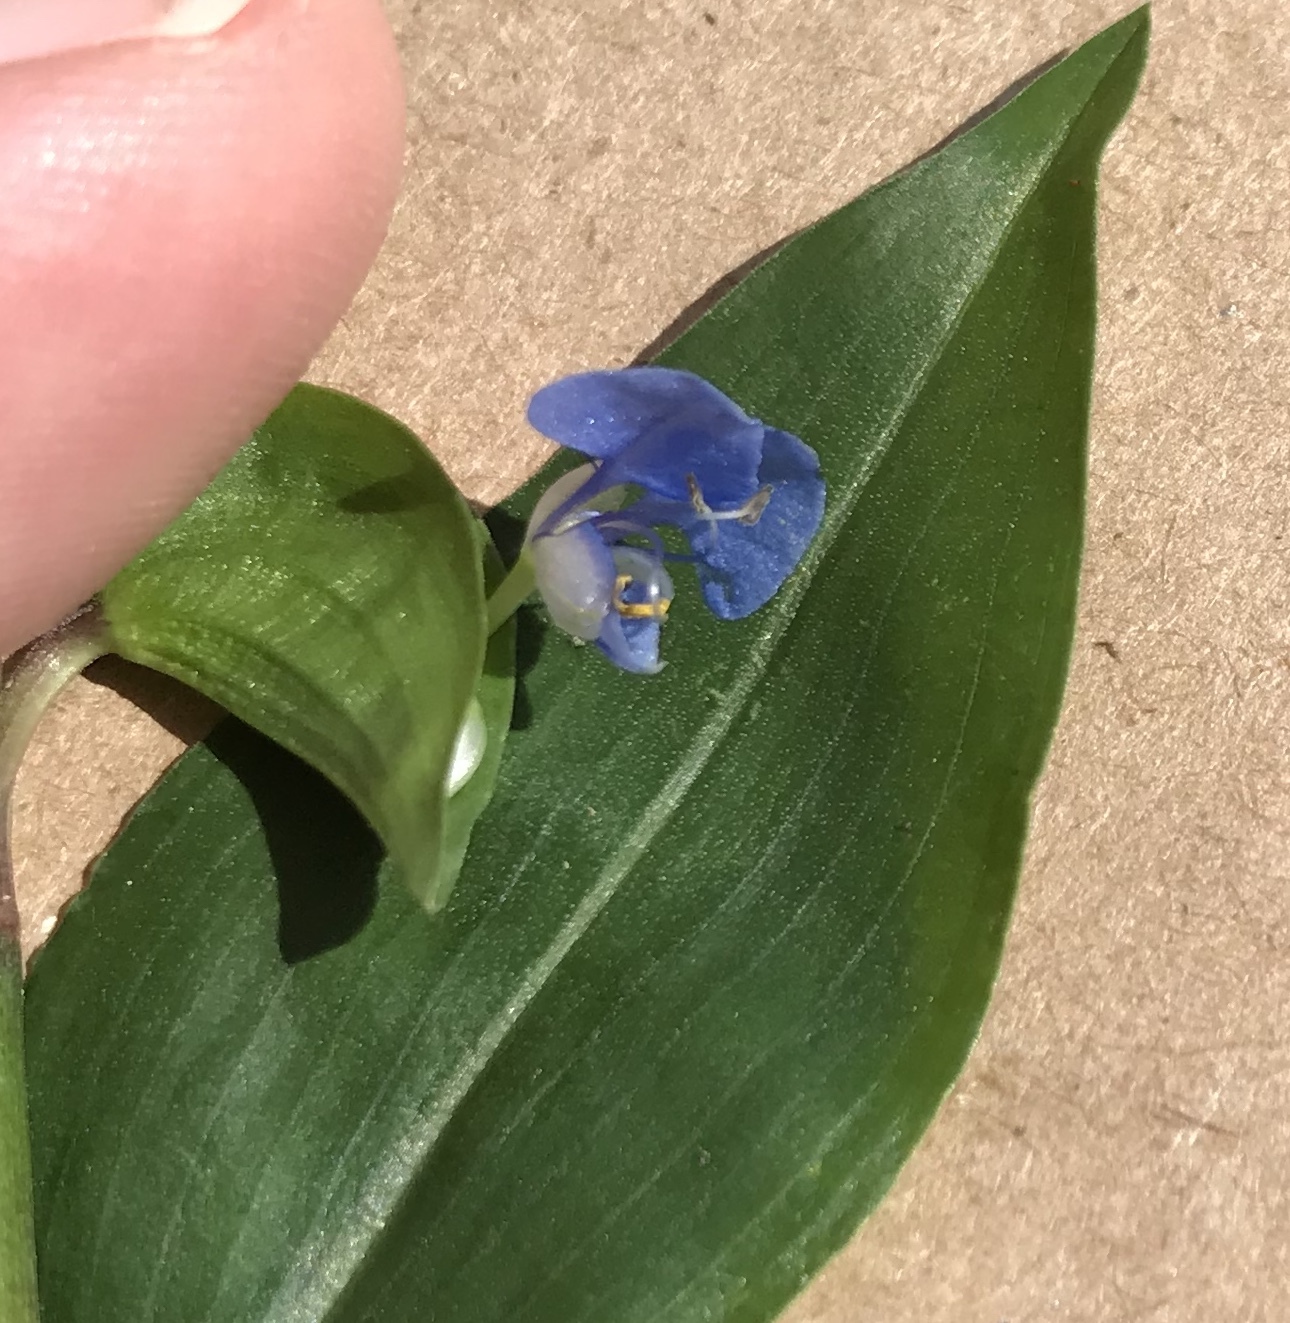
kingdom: Plantae
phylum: Tracheophyta
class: Magnoliopsida
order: Asterales
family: Asteraceae
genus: Youngia
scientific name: Youngia japonica
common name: Oriental false hawksbeard
